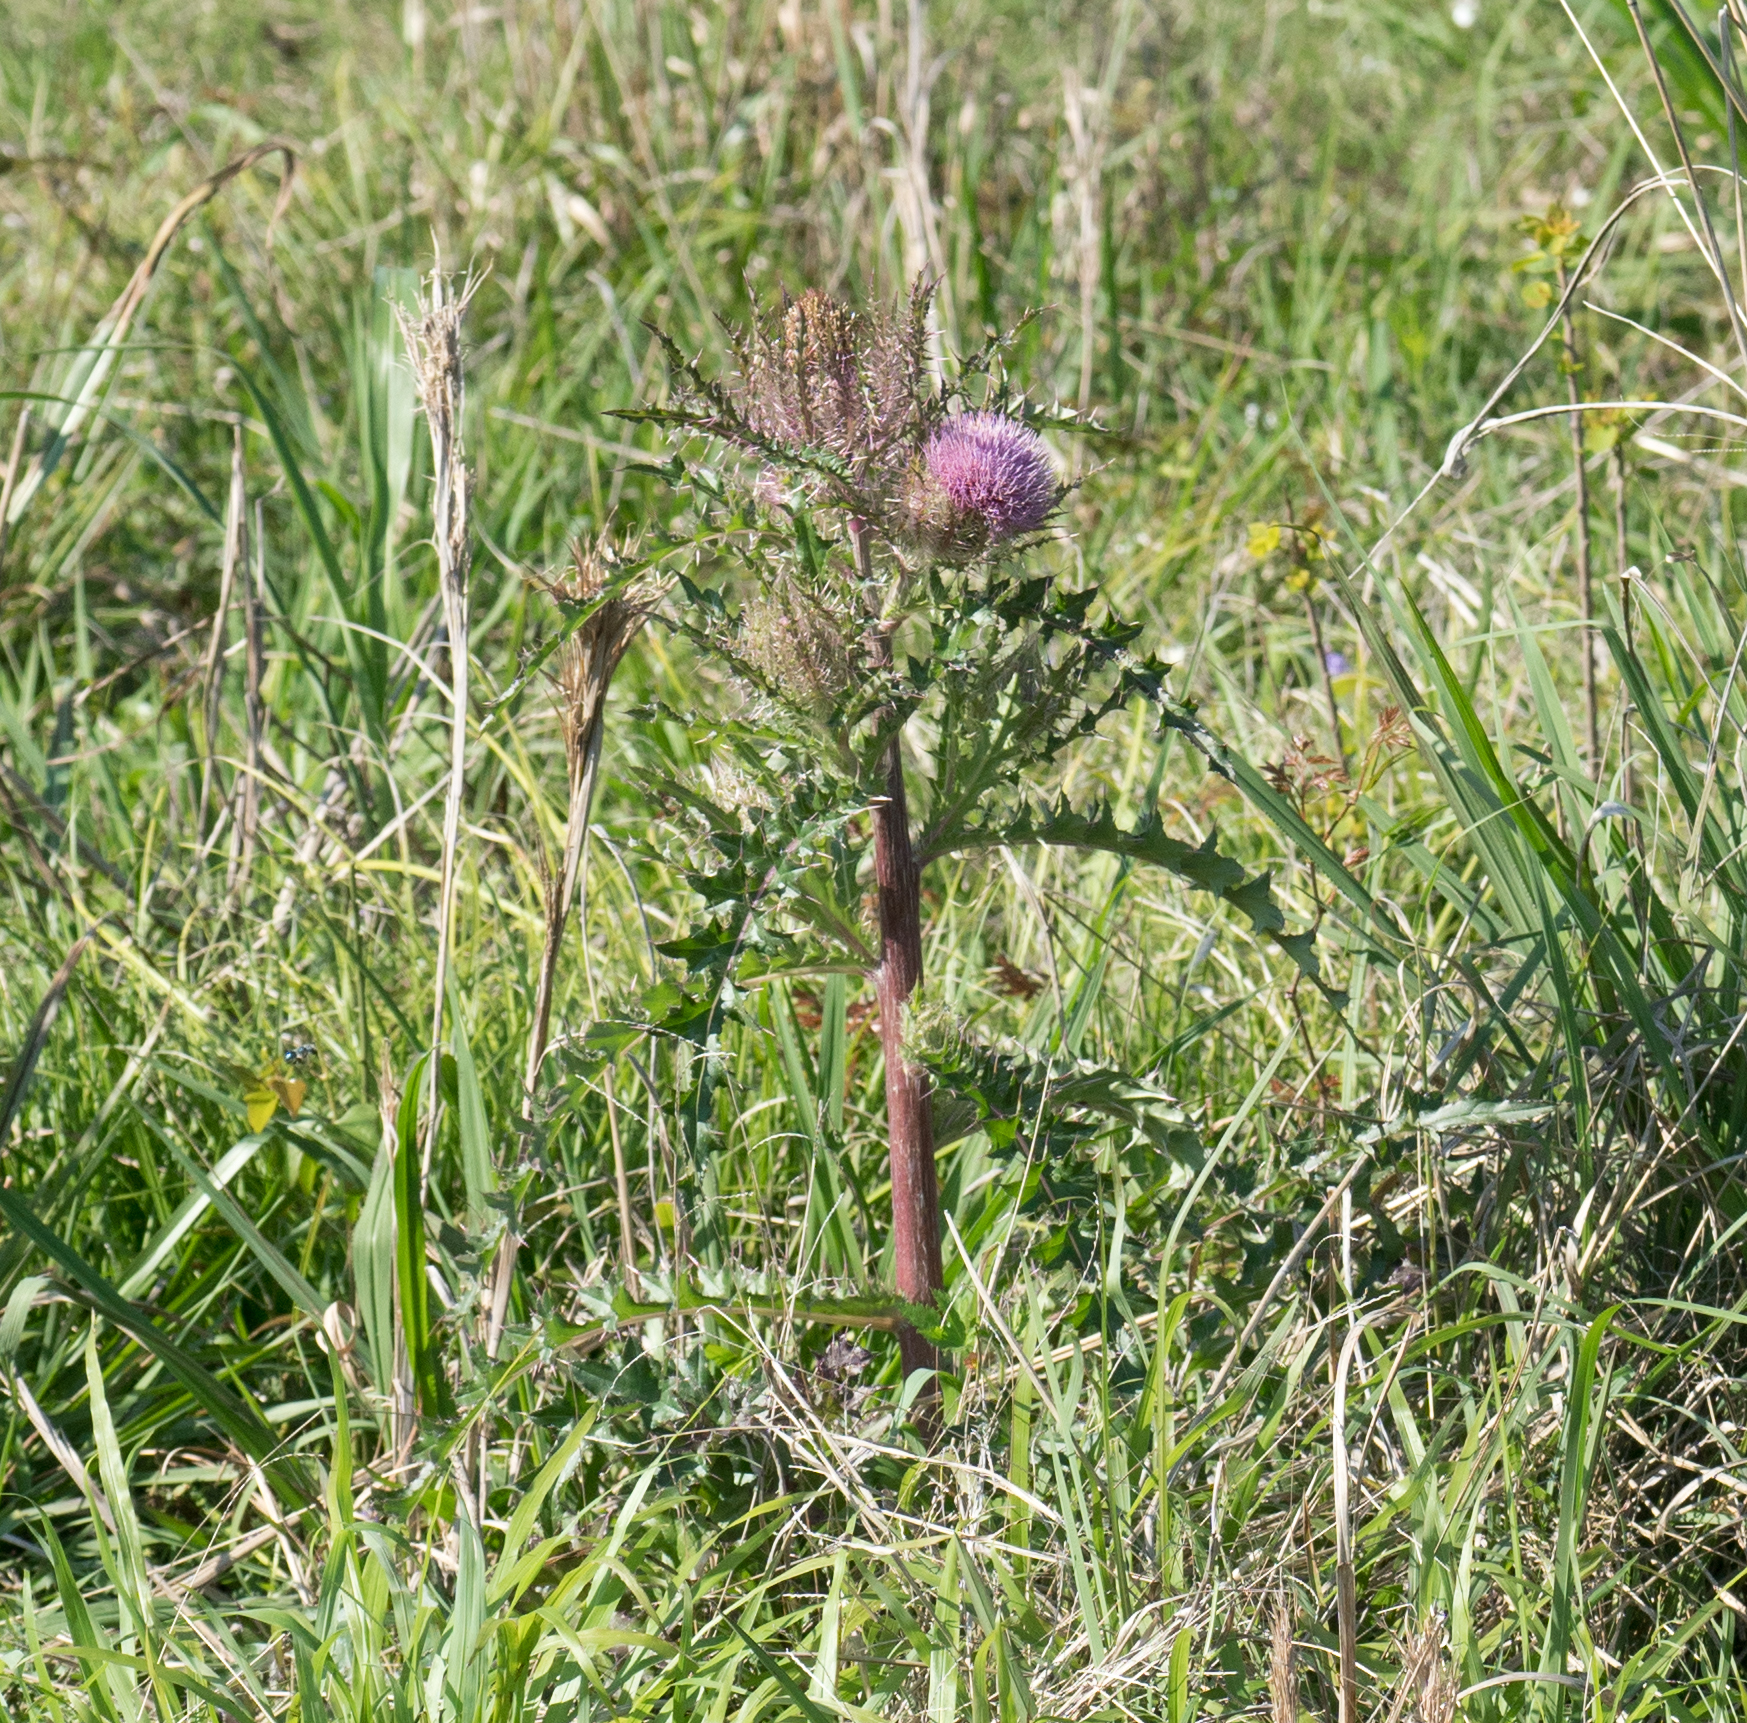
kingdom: Plantae
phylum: Tracheophyta
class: Magnoliopsida
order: Asterales
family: Asteraceae
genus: Cirsium
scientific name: Cirsium horridulum
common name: Bristly thistle
